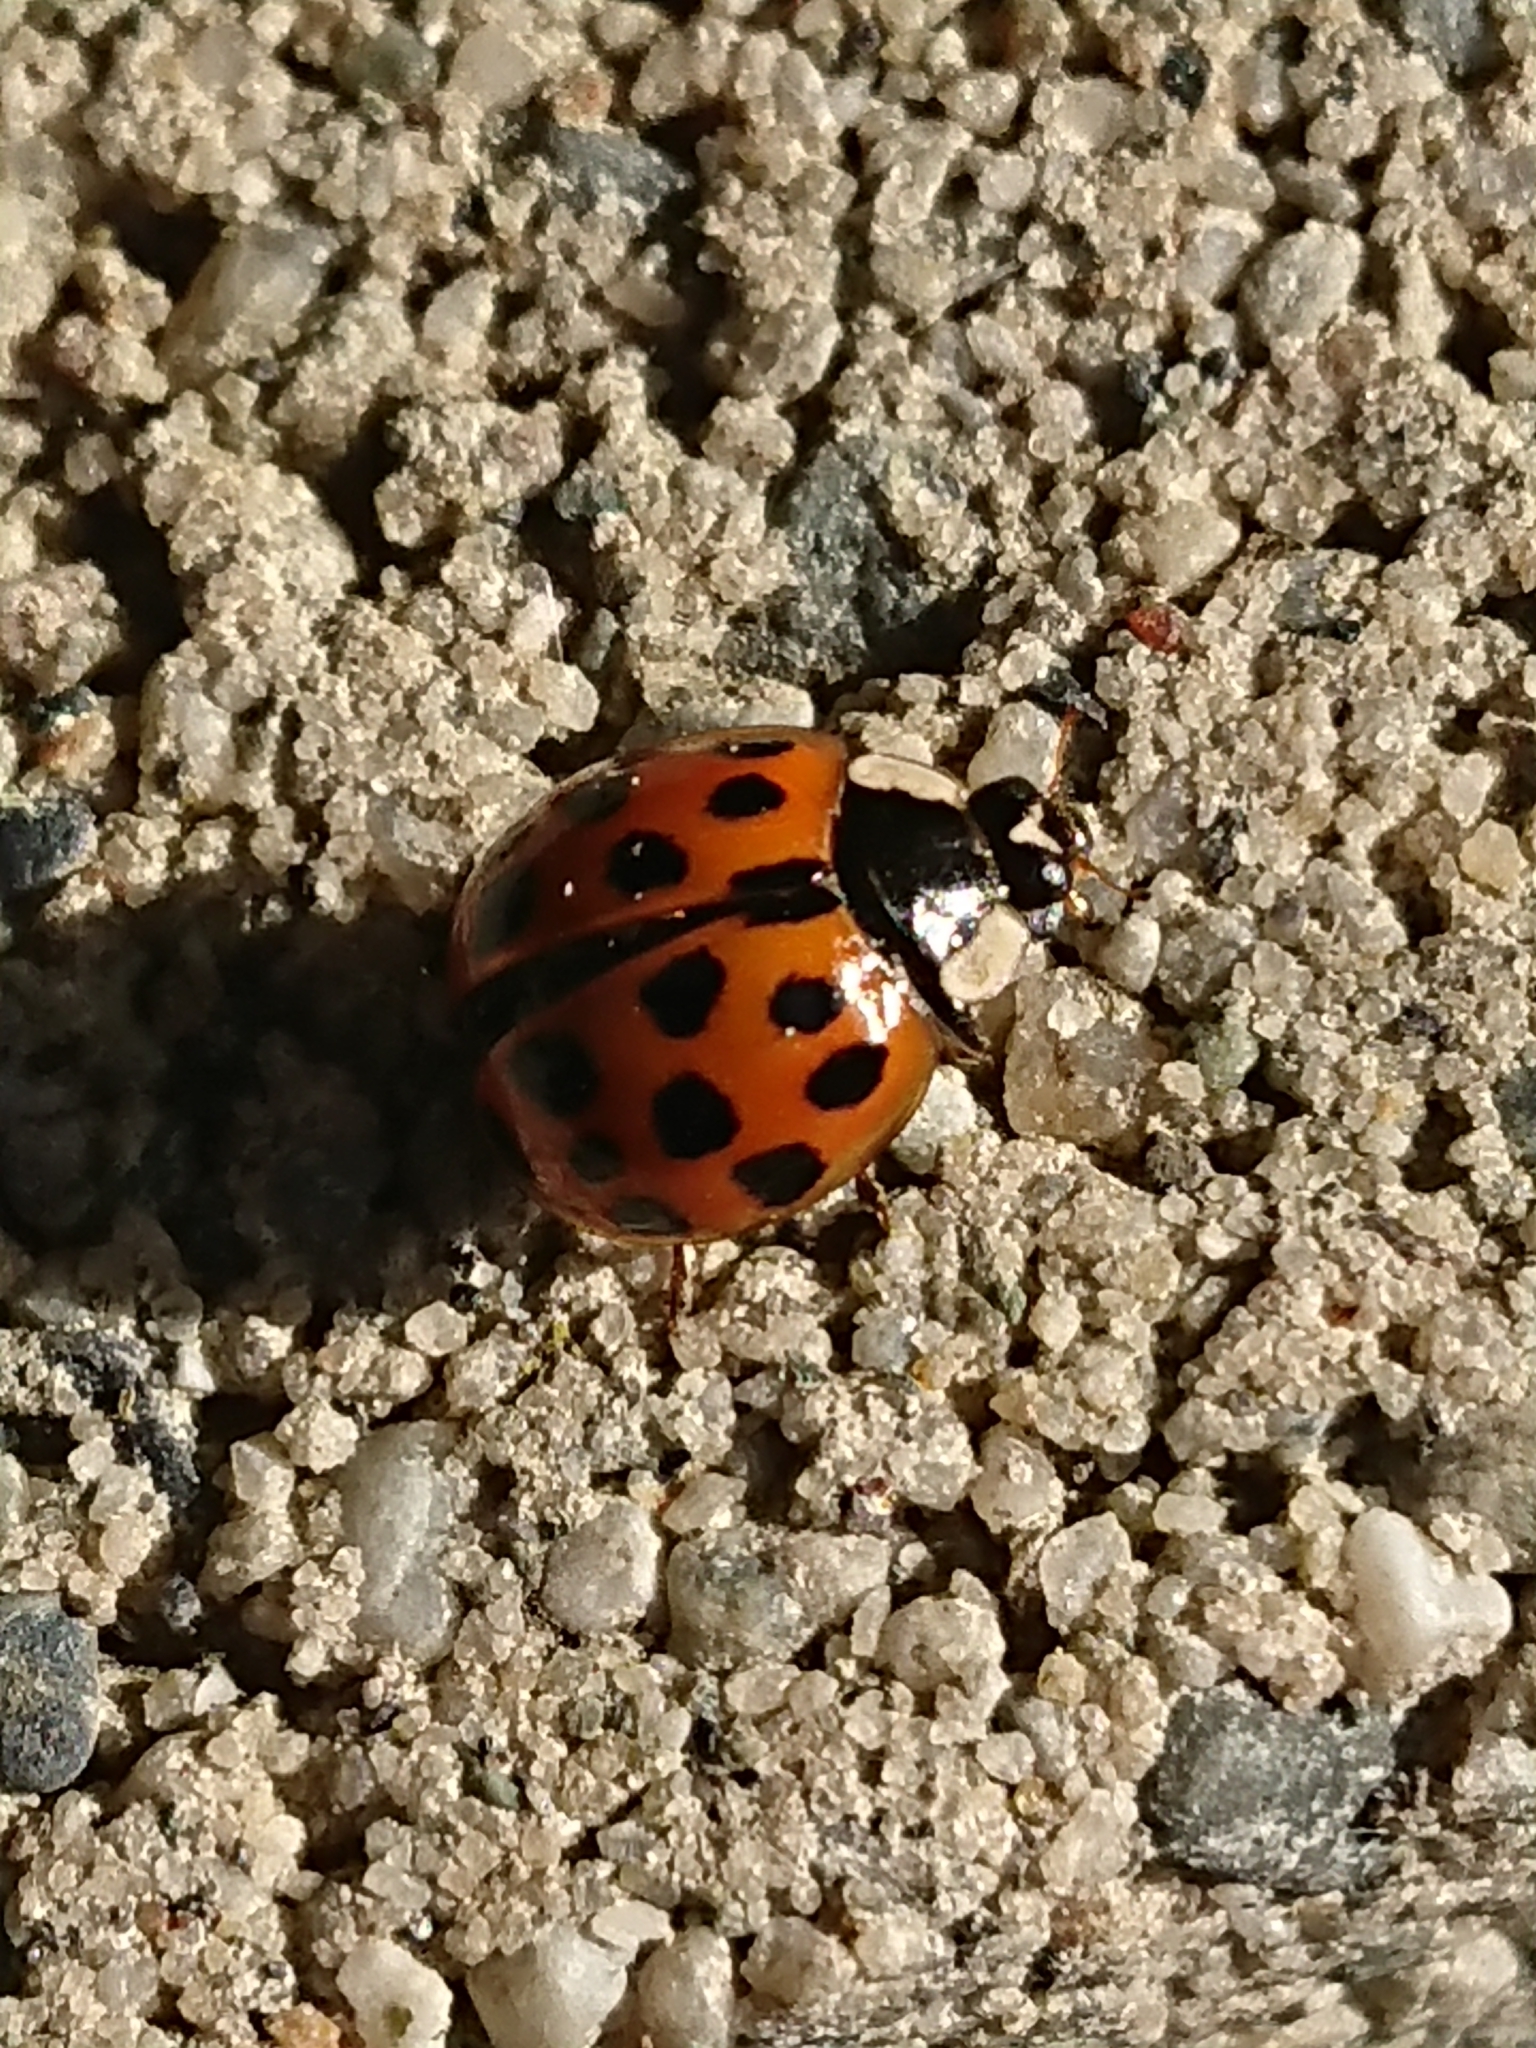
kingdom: Animalia
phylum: Arthropoda
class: Insecta
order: Coleoptera
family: Coccinellidae
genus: Harmonia
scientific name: Harmonia axyridis
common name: Harlequin ladybird
